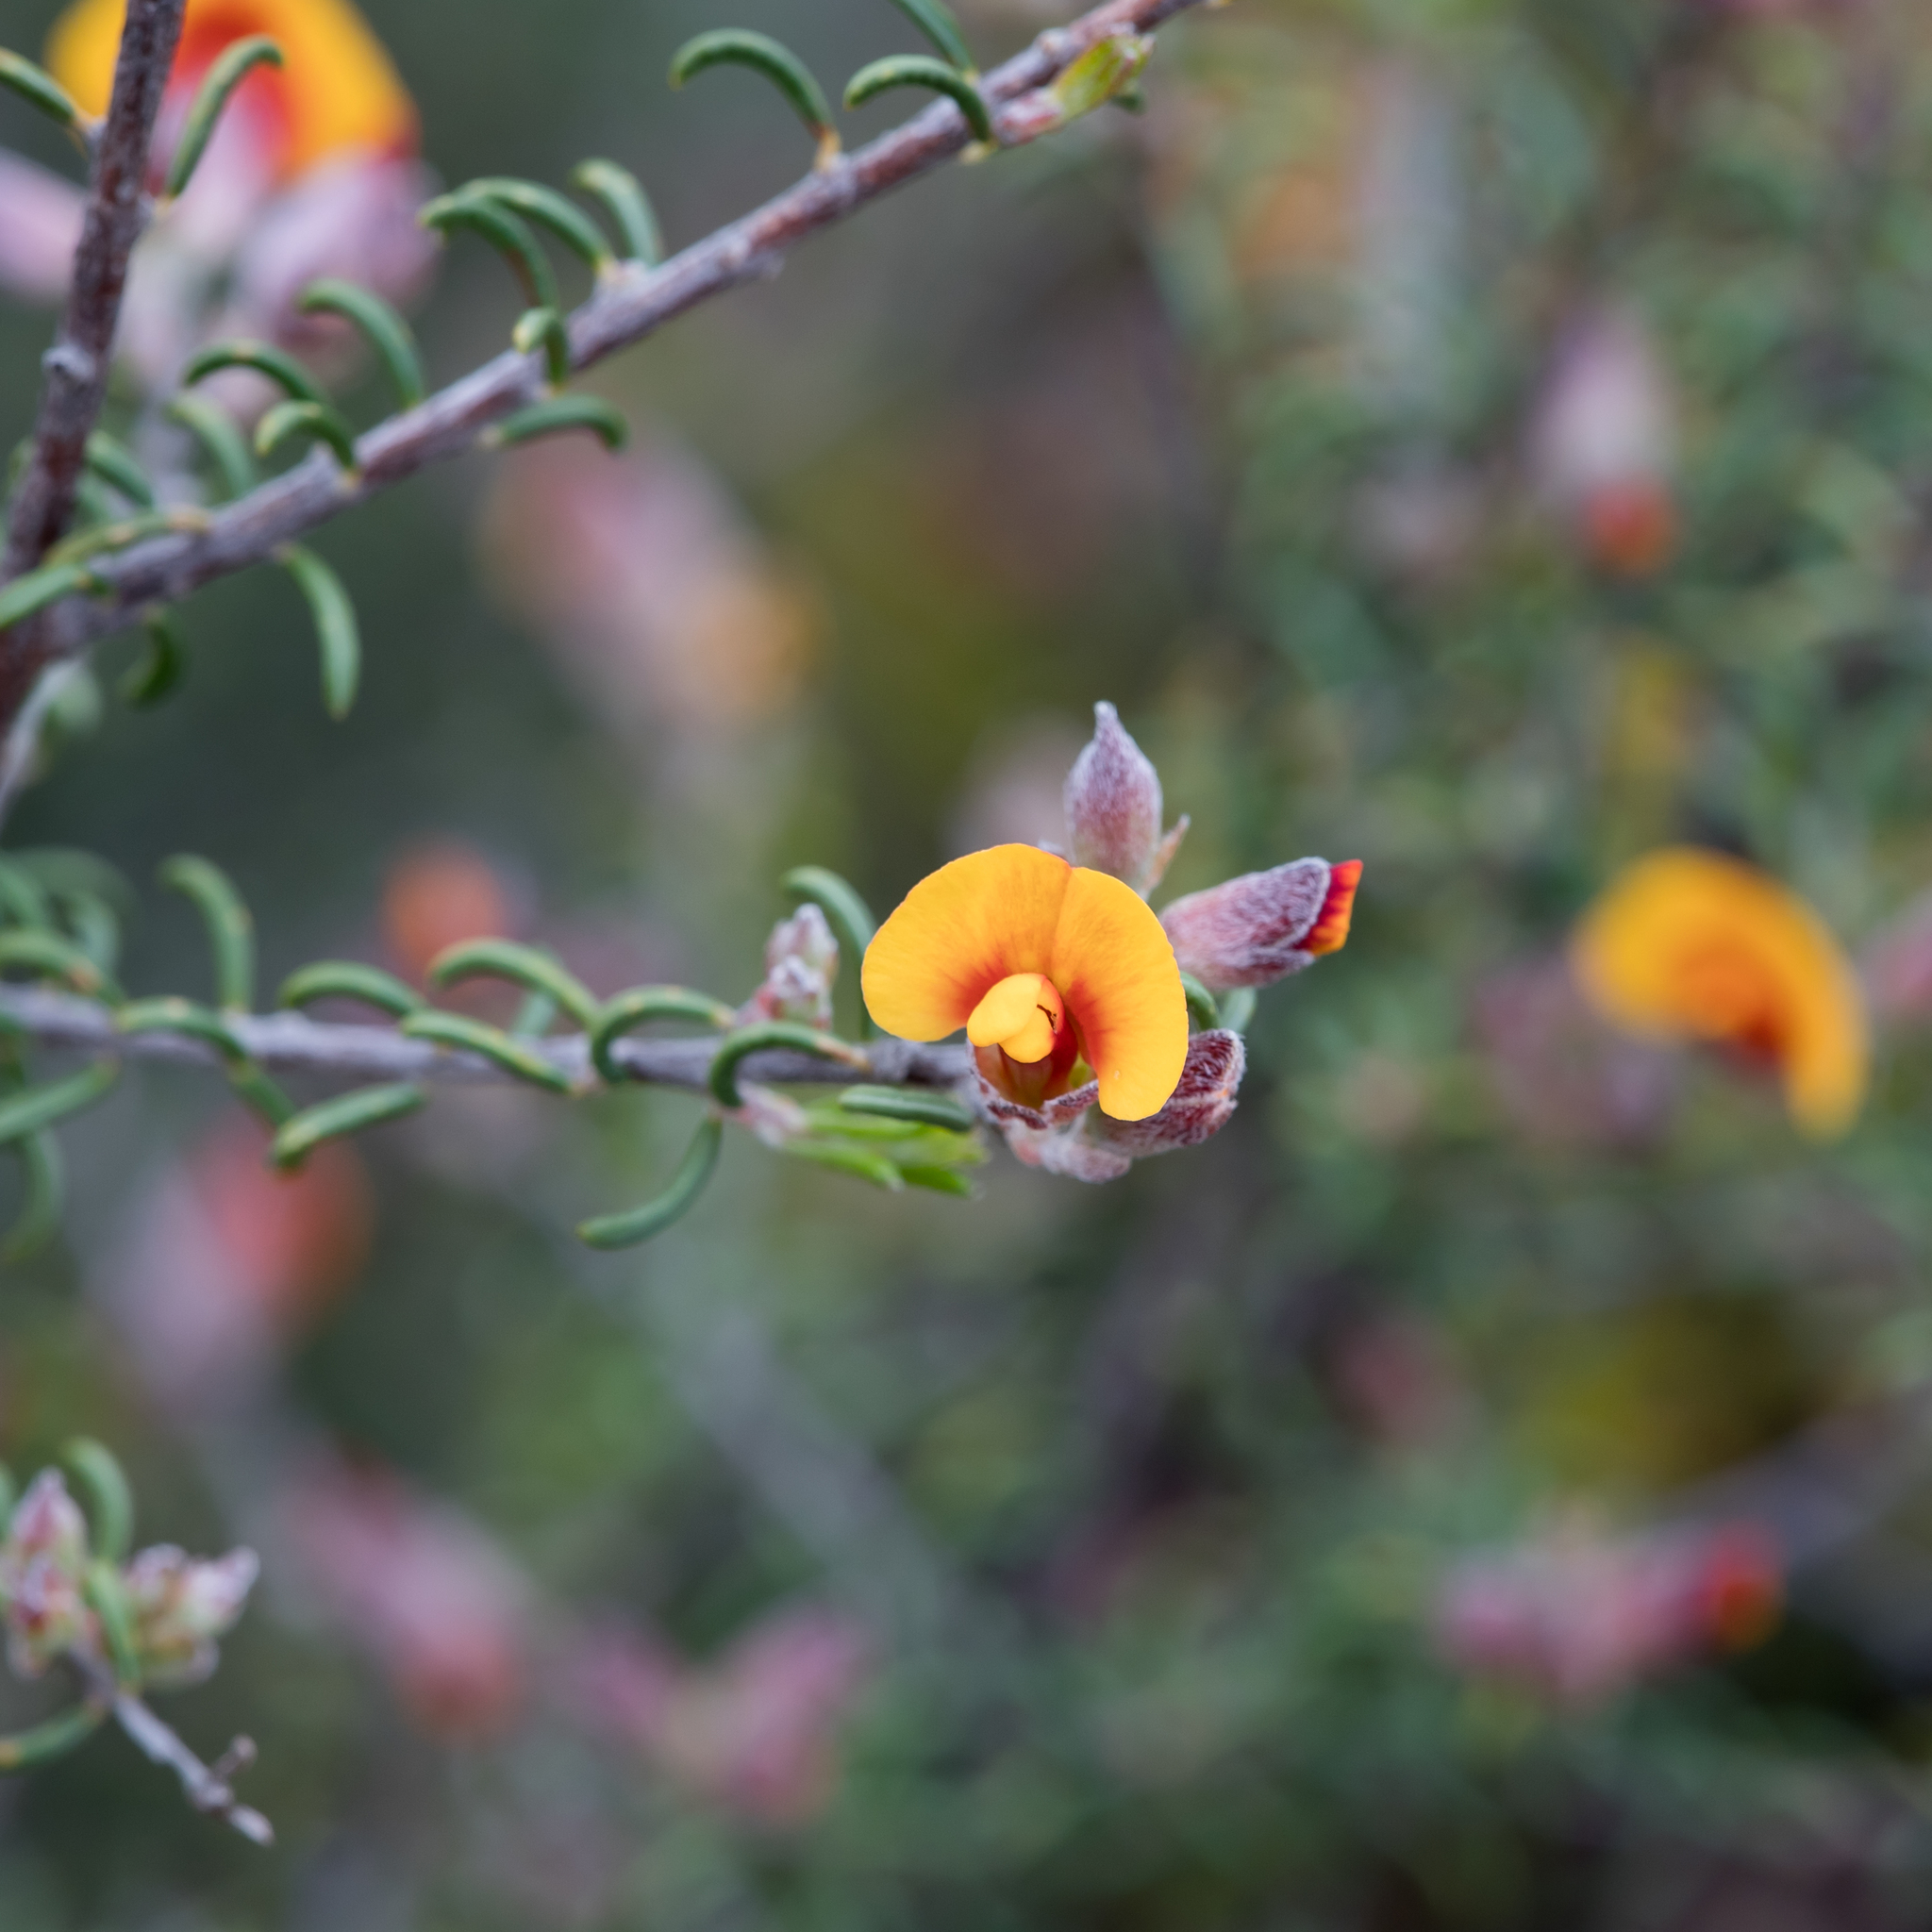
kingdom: Plantae
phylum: Tracheophyta
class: Magnoliopsida
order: Fabales
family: Fabaceae
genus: Dillwynia
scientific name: Dillwynia uncinata
